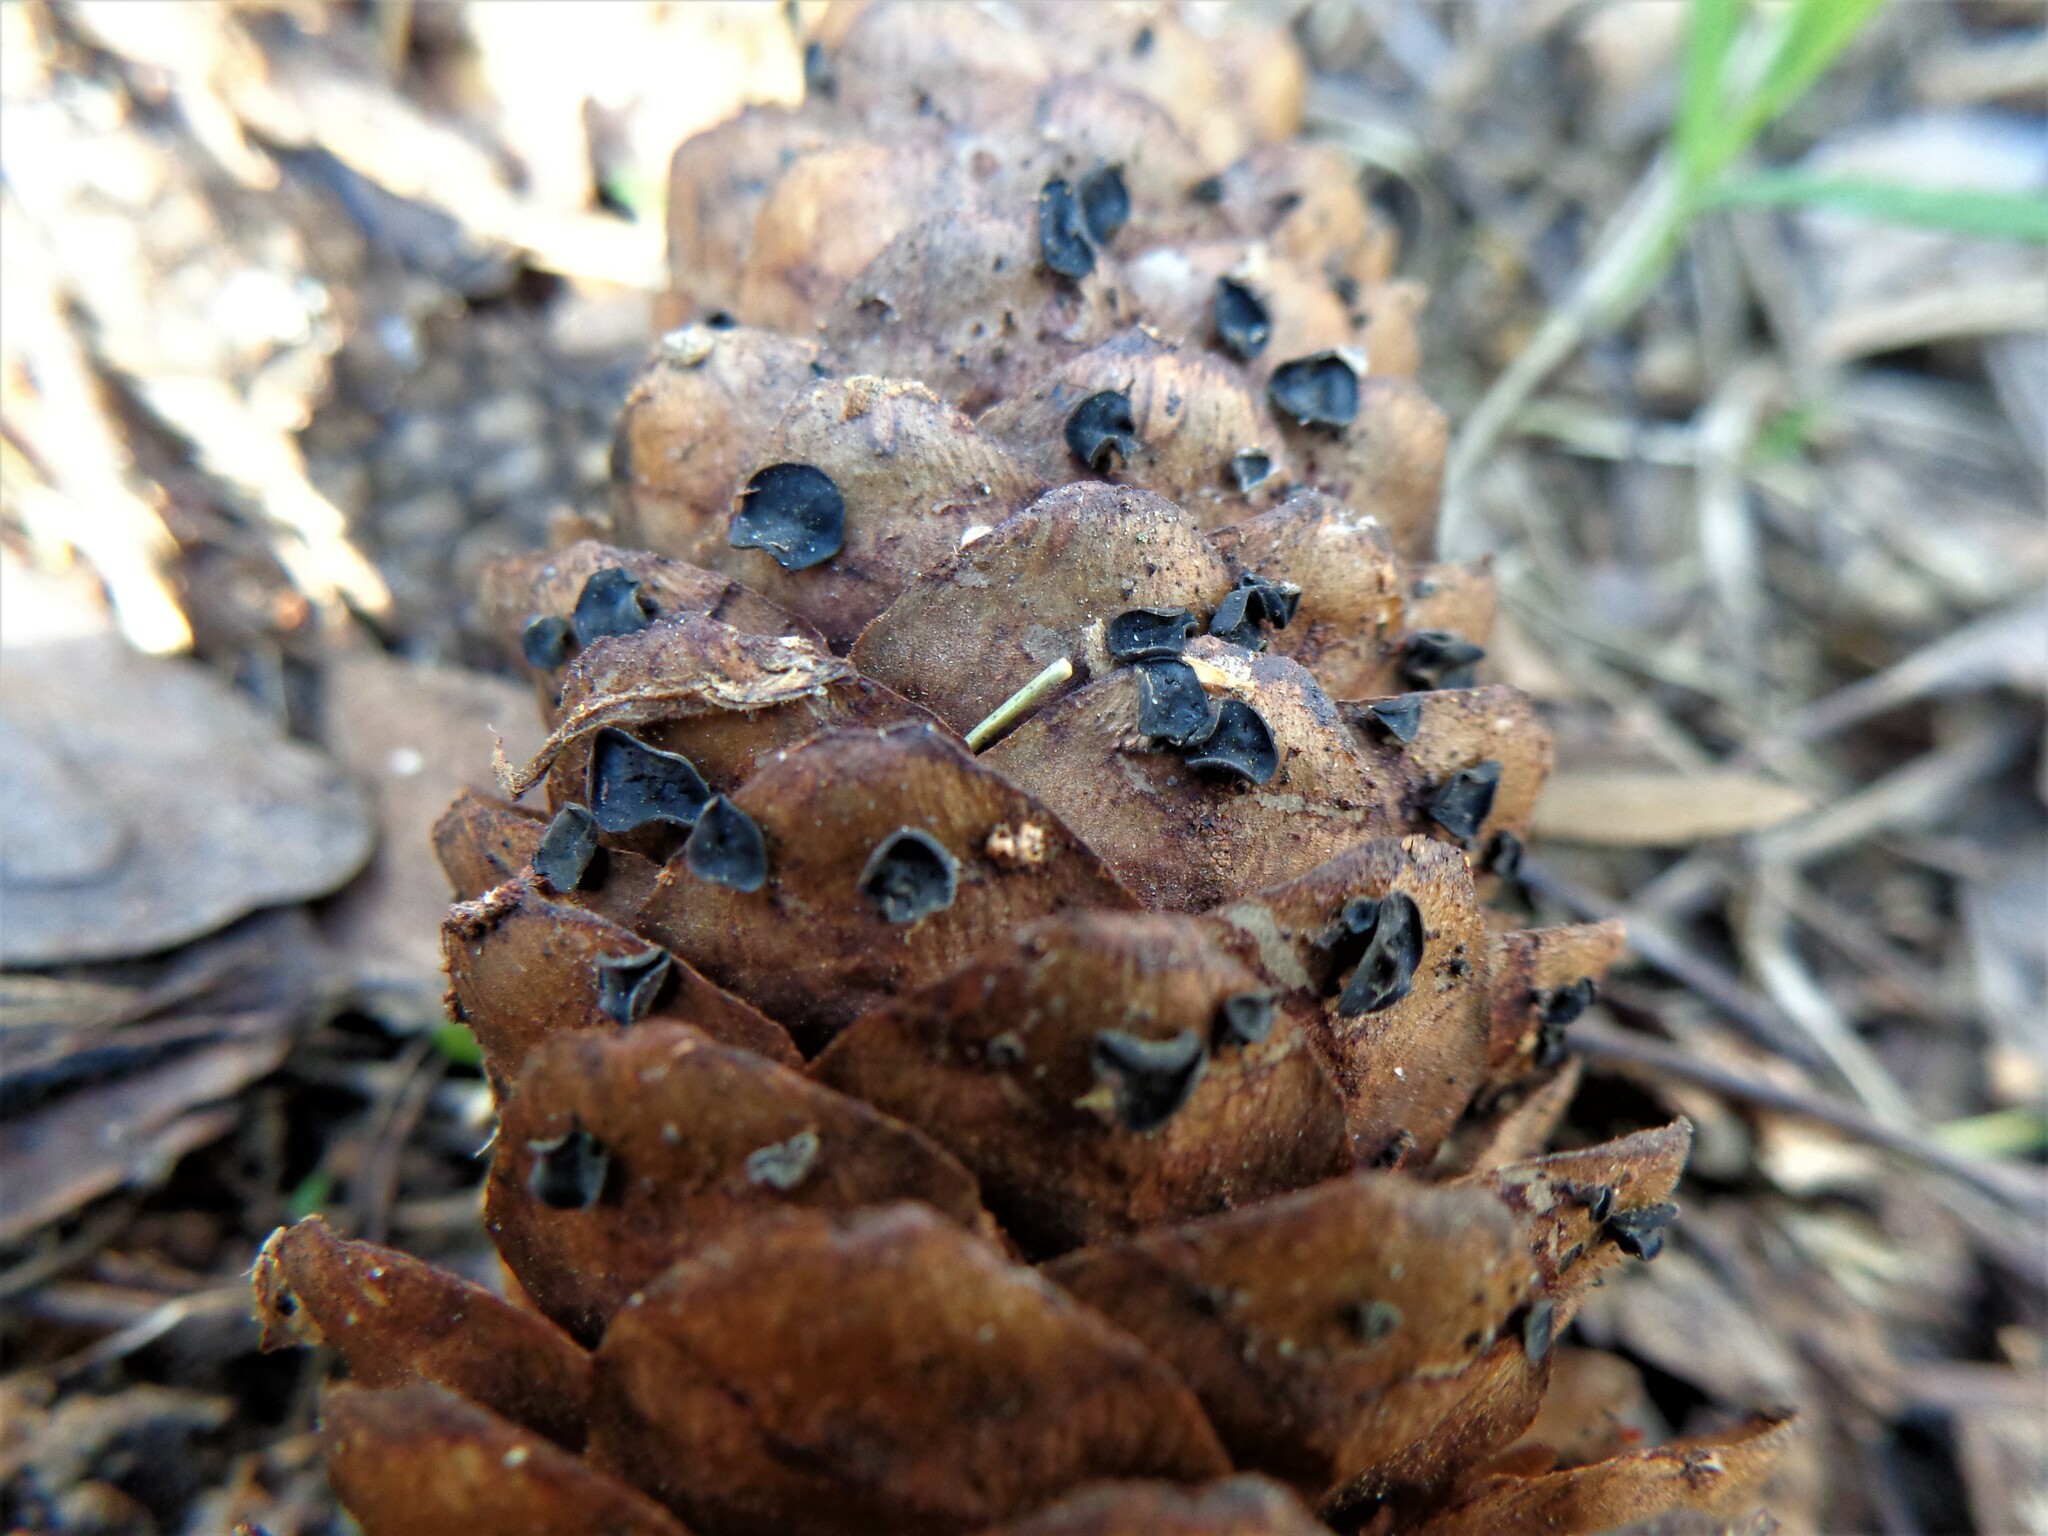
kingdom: Fungi
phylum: Ascomycota
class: Leotiomycetes
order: Helotiales
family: Rutstroemiaceae
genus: Rutstroemia
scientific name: Rutstroemia bulgarioides
